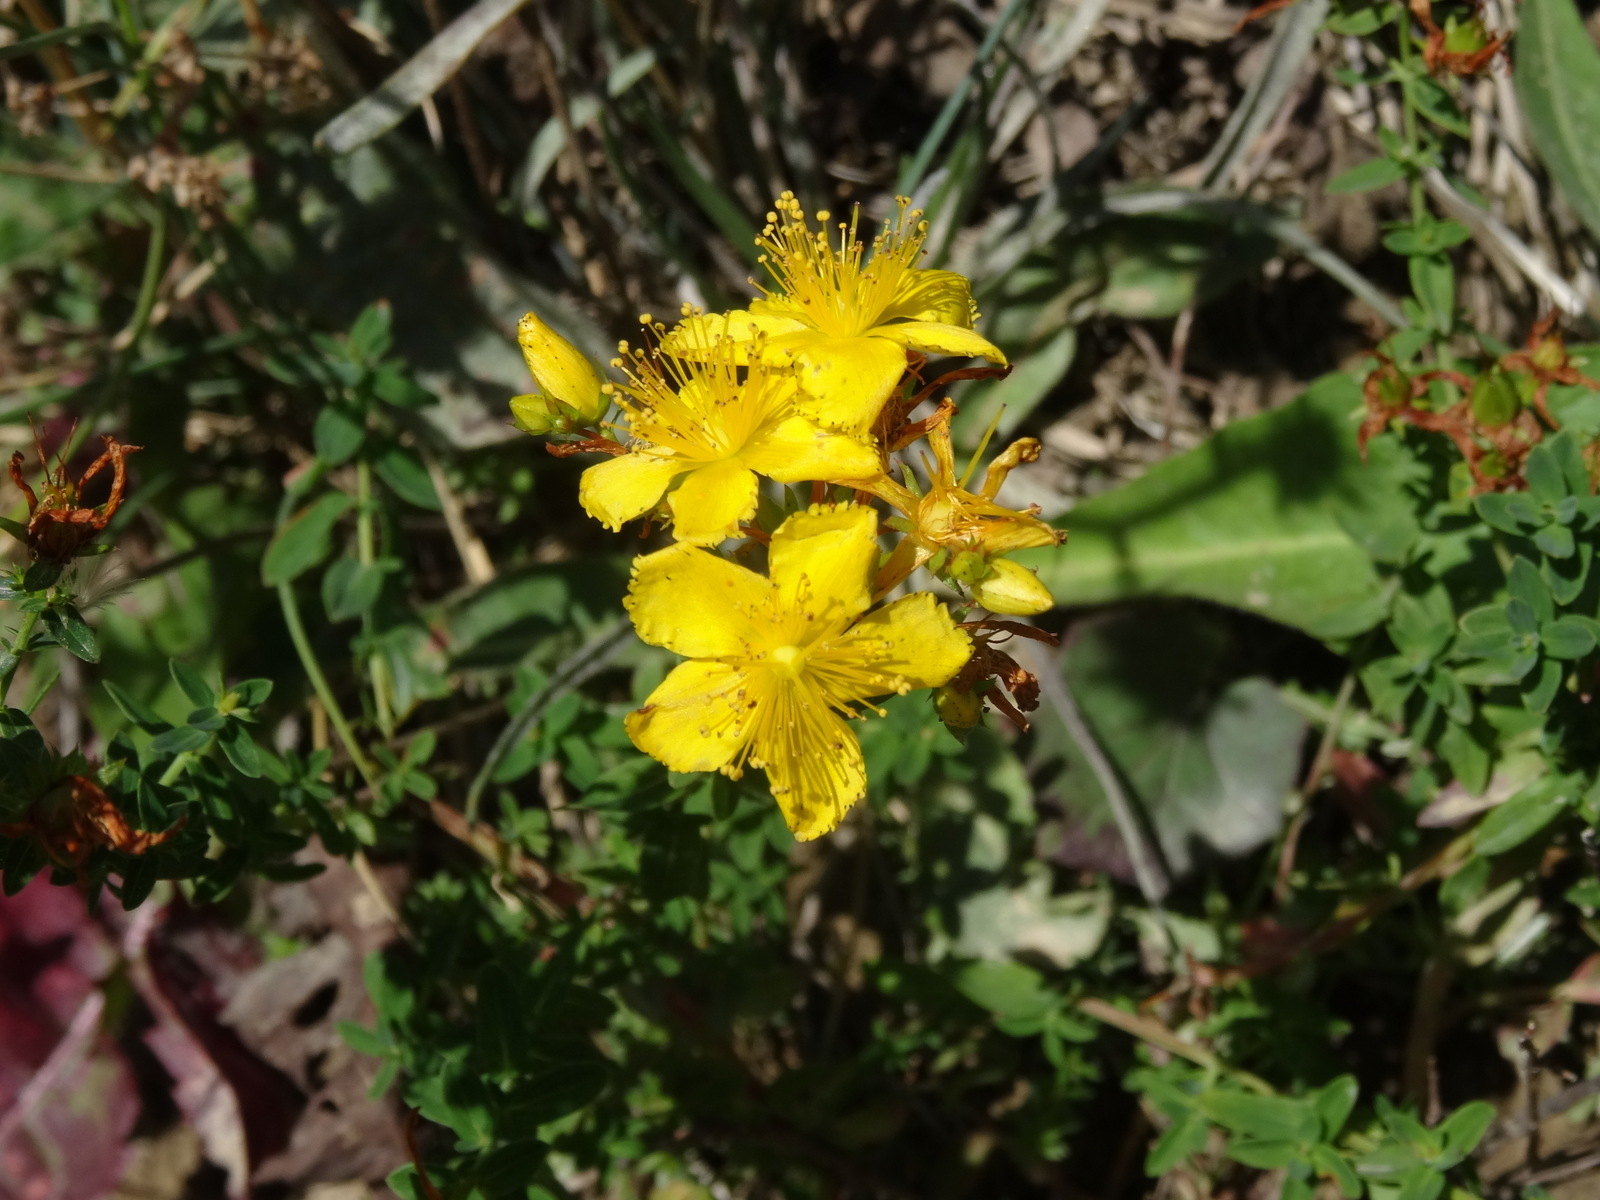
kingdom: Plantae
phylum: Tracheophyta
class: Magnoliopsida
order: Malpighiales
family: Hypericaceae
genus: Hypericum
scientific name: Hypericum perforatum
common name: Common st. johnswort
